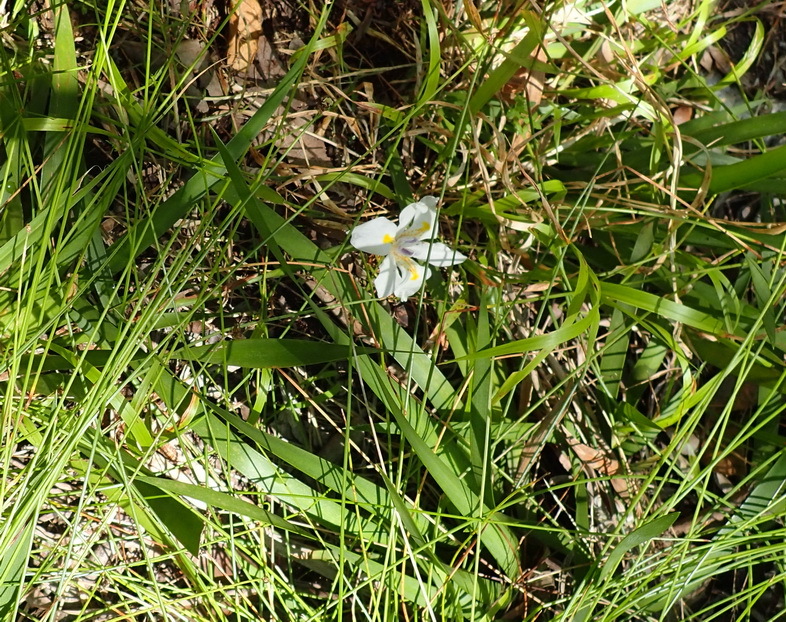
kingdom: Plantae
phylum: Tracheophyta
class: Liliopsida
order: Asparagales
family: Iridaceae
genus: Dietes
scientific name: Dietes iridioides
